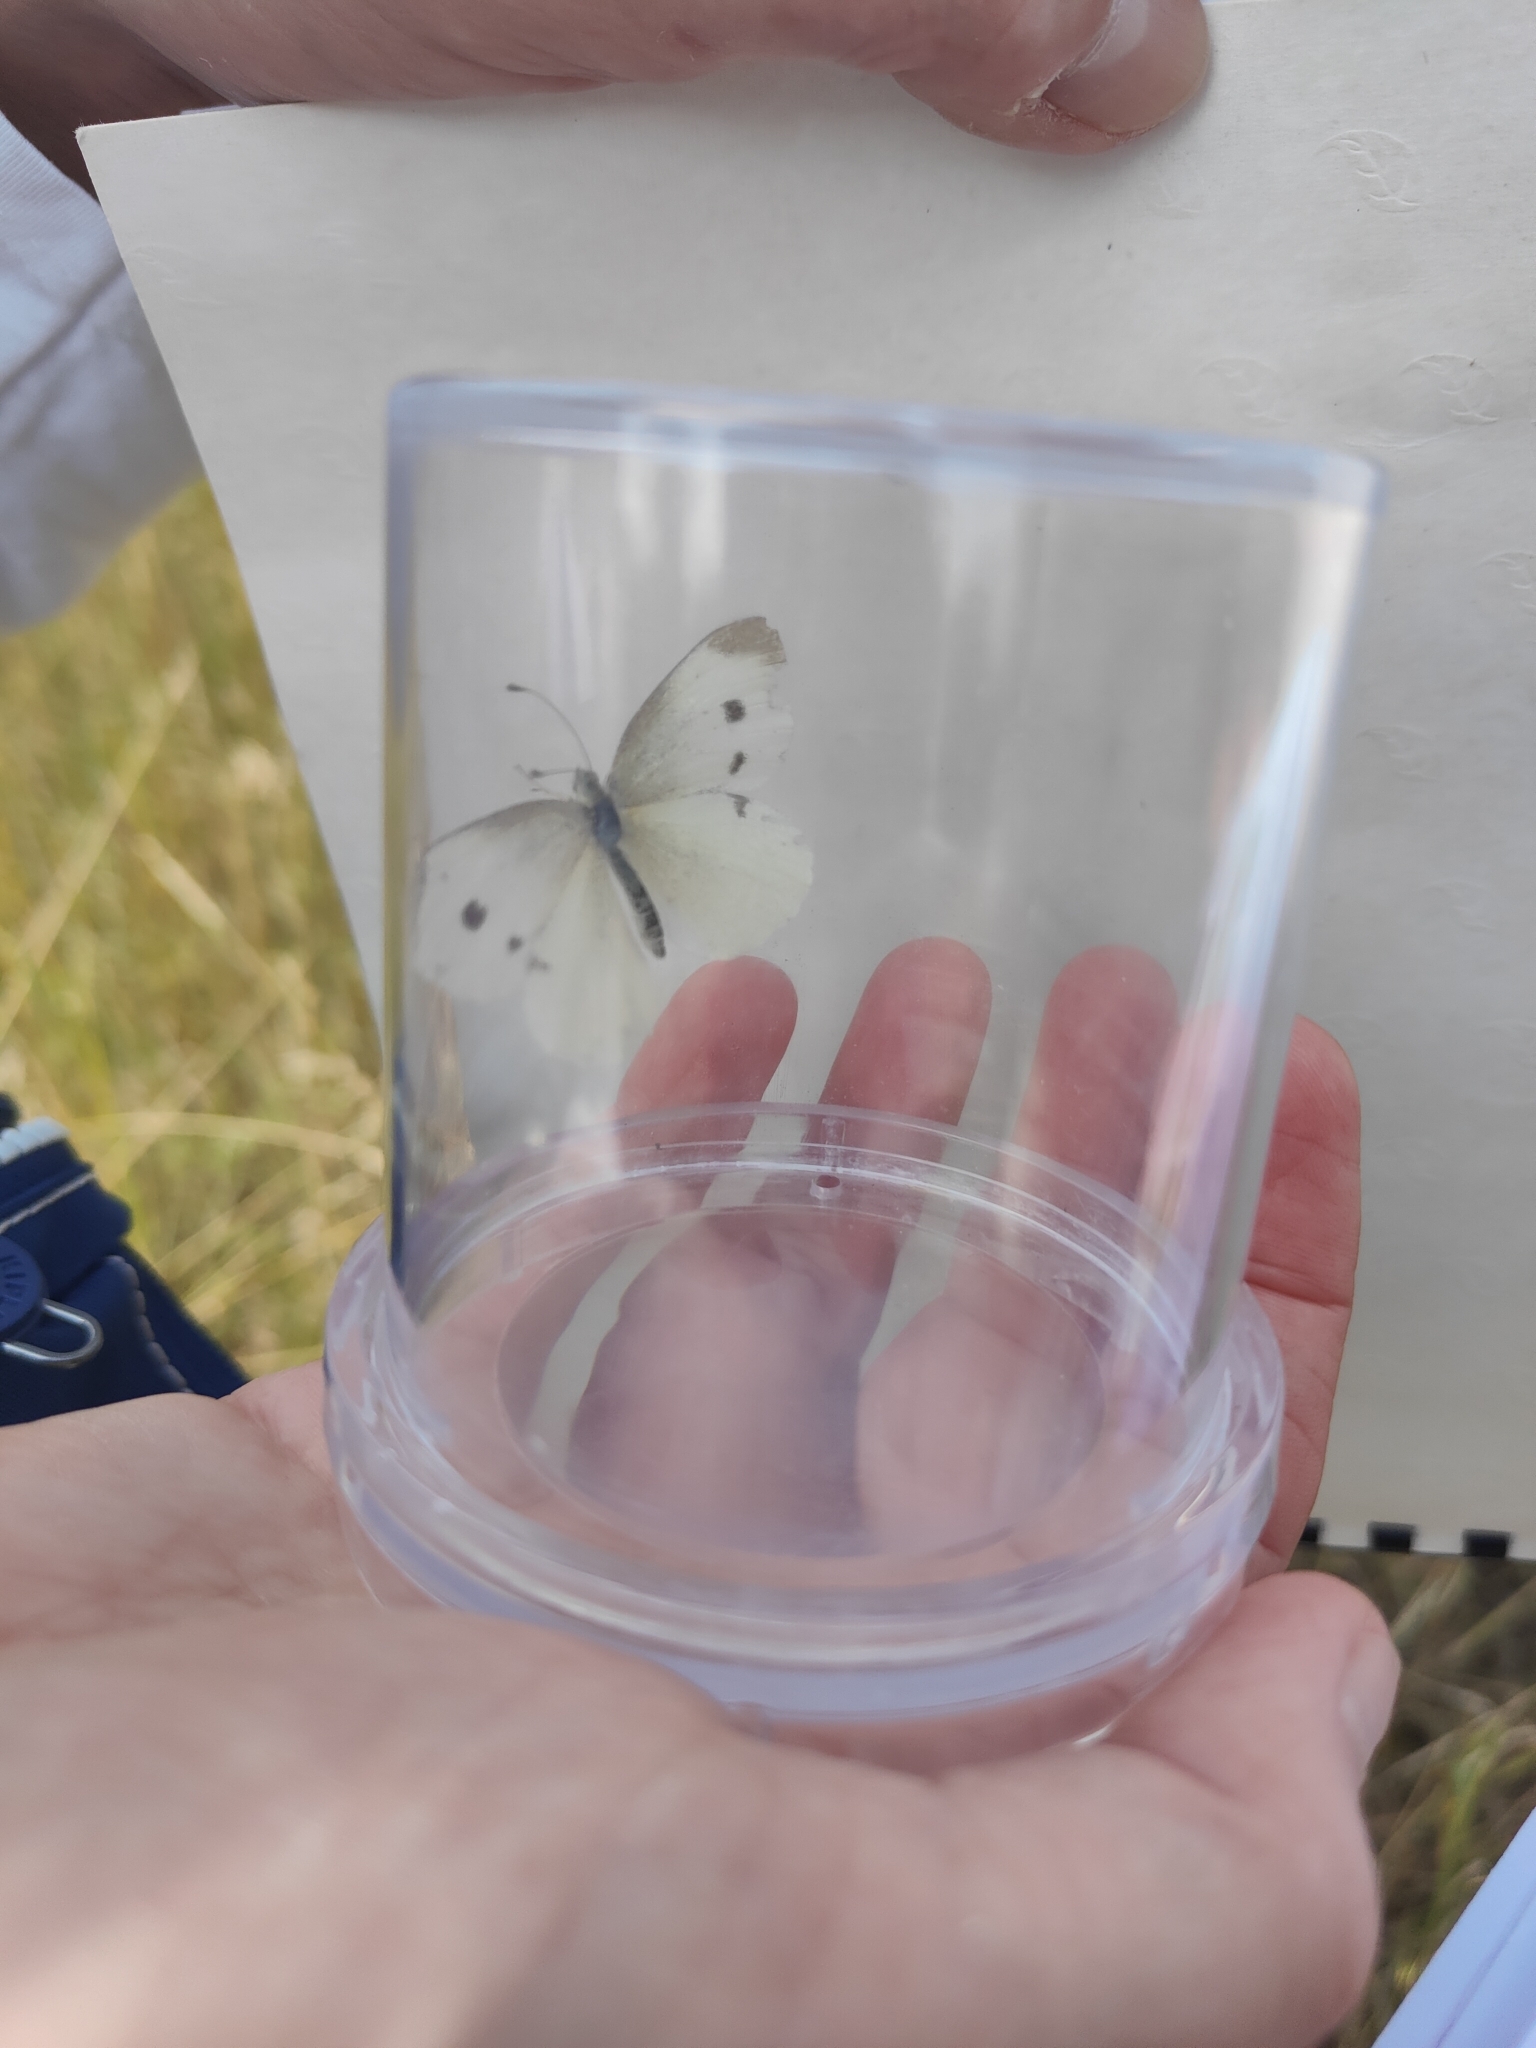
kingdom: Animalia
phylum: Arthropoda
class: Insecta
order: Lepidoptera
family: Pieridae
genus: Pieris
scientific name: Pieris rapae
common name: Small white
